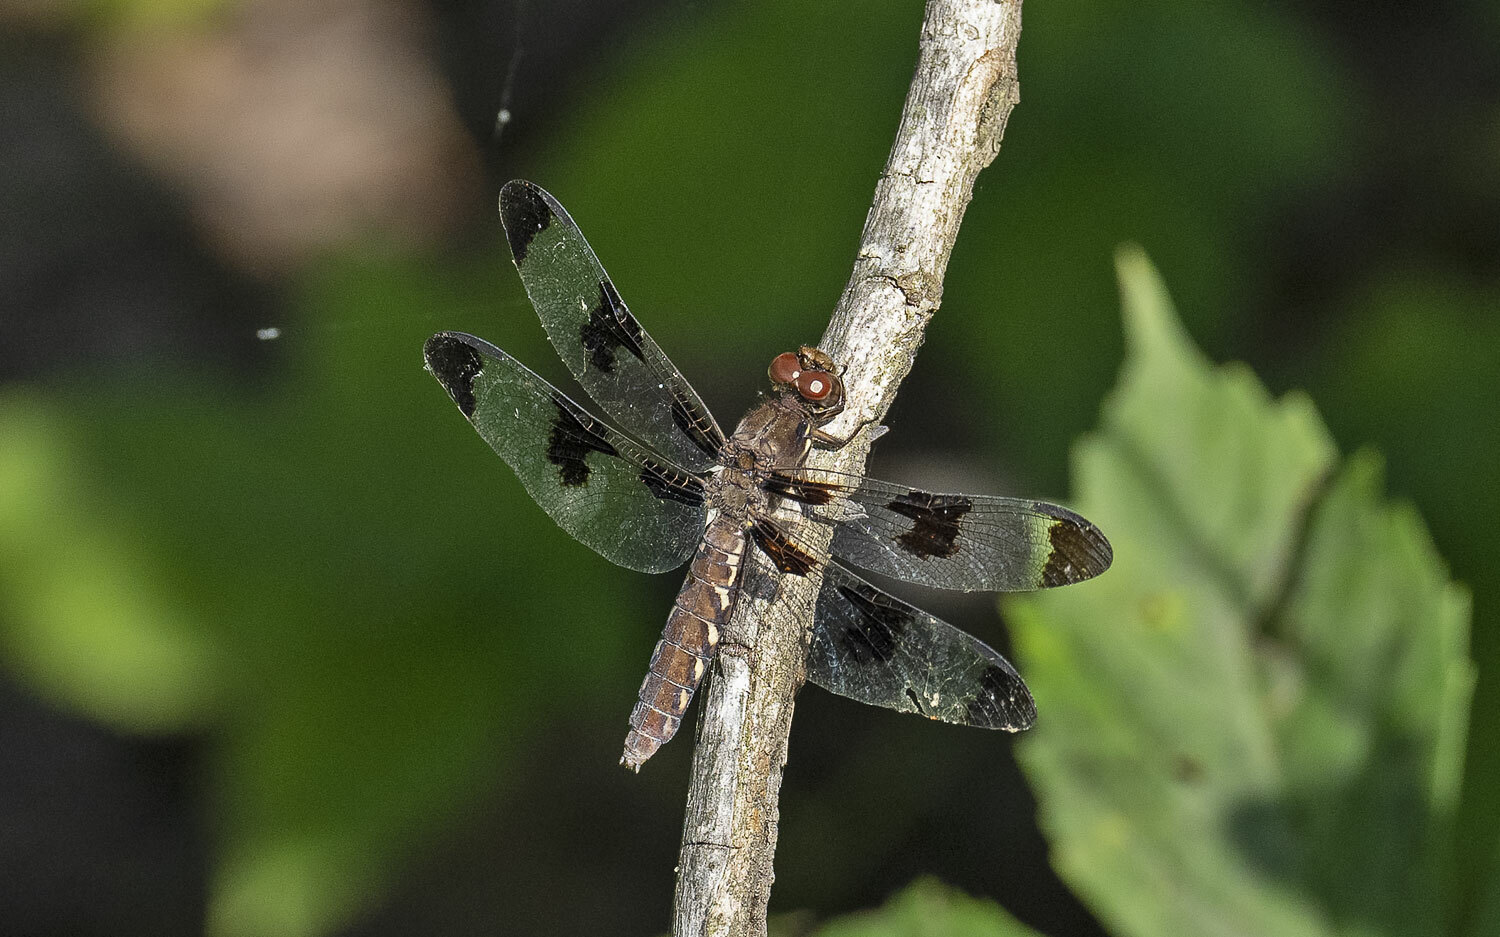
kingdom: Animalia
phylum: Arthropoda
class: Insecta
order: Odonata
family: Libellulidae
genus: Plathemis
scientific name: Plathemis lydia
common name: Common whitetail
